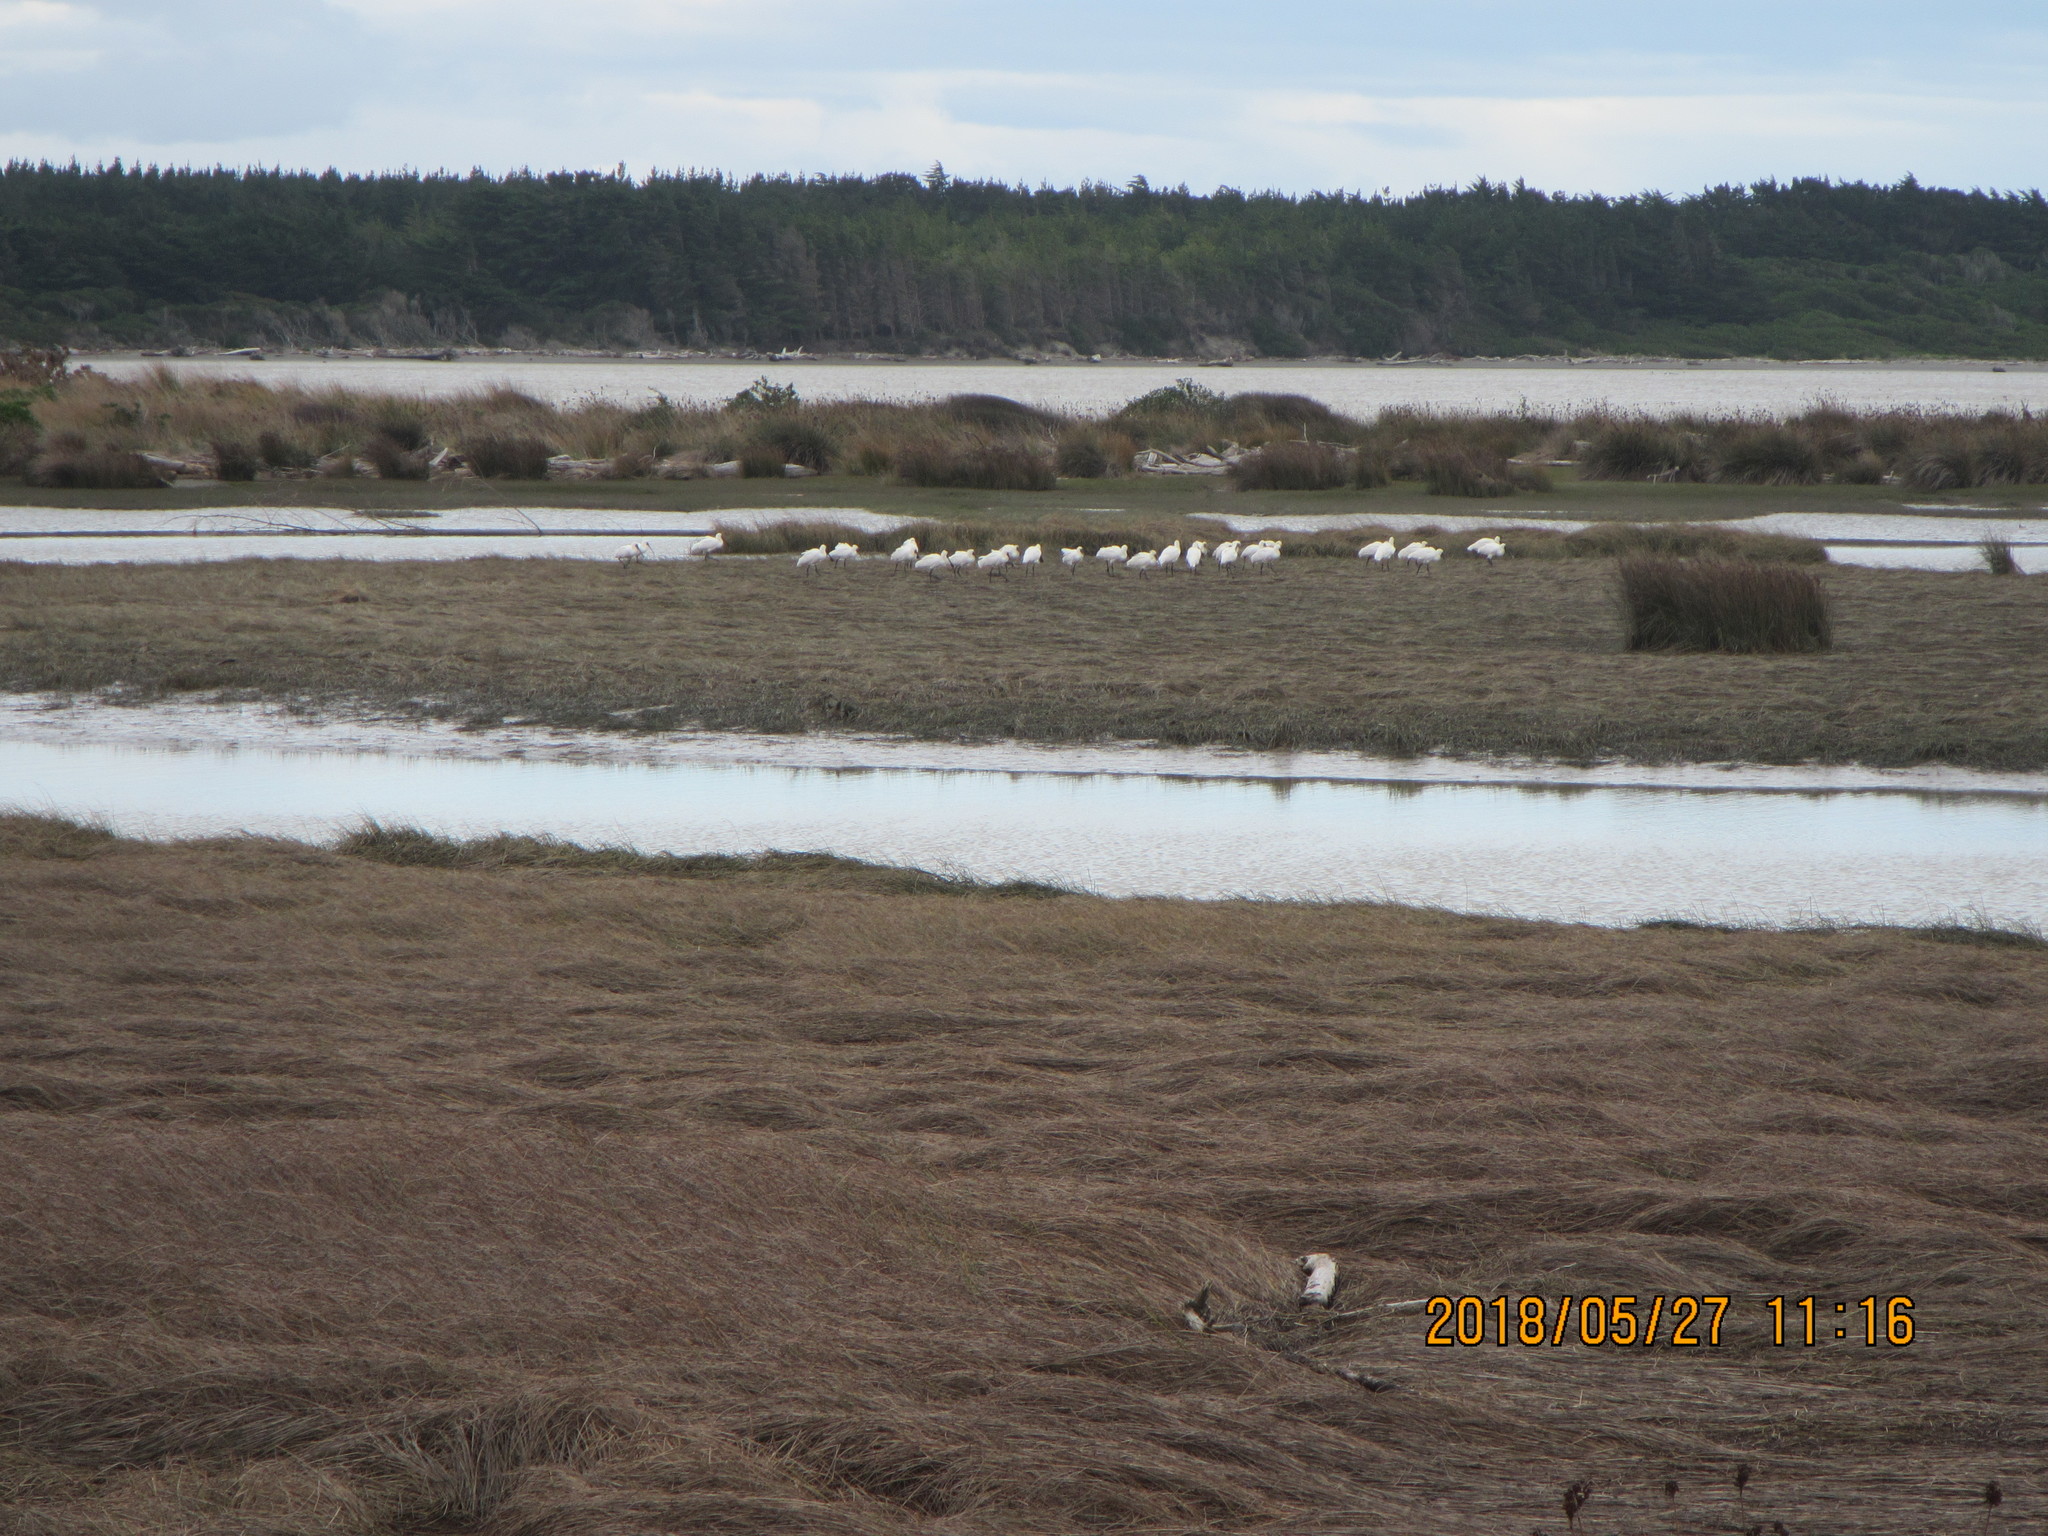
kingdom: Animalia
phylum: Chordata
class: Aves
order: Pelecaniformes
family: Threskiornithidae
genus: Platalea
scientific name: Platalea regia
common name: Royal spoonbill
